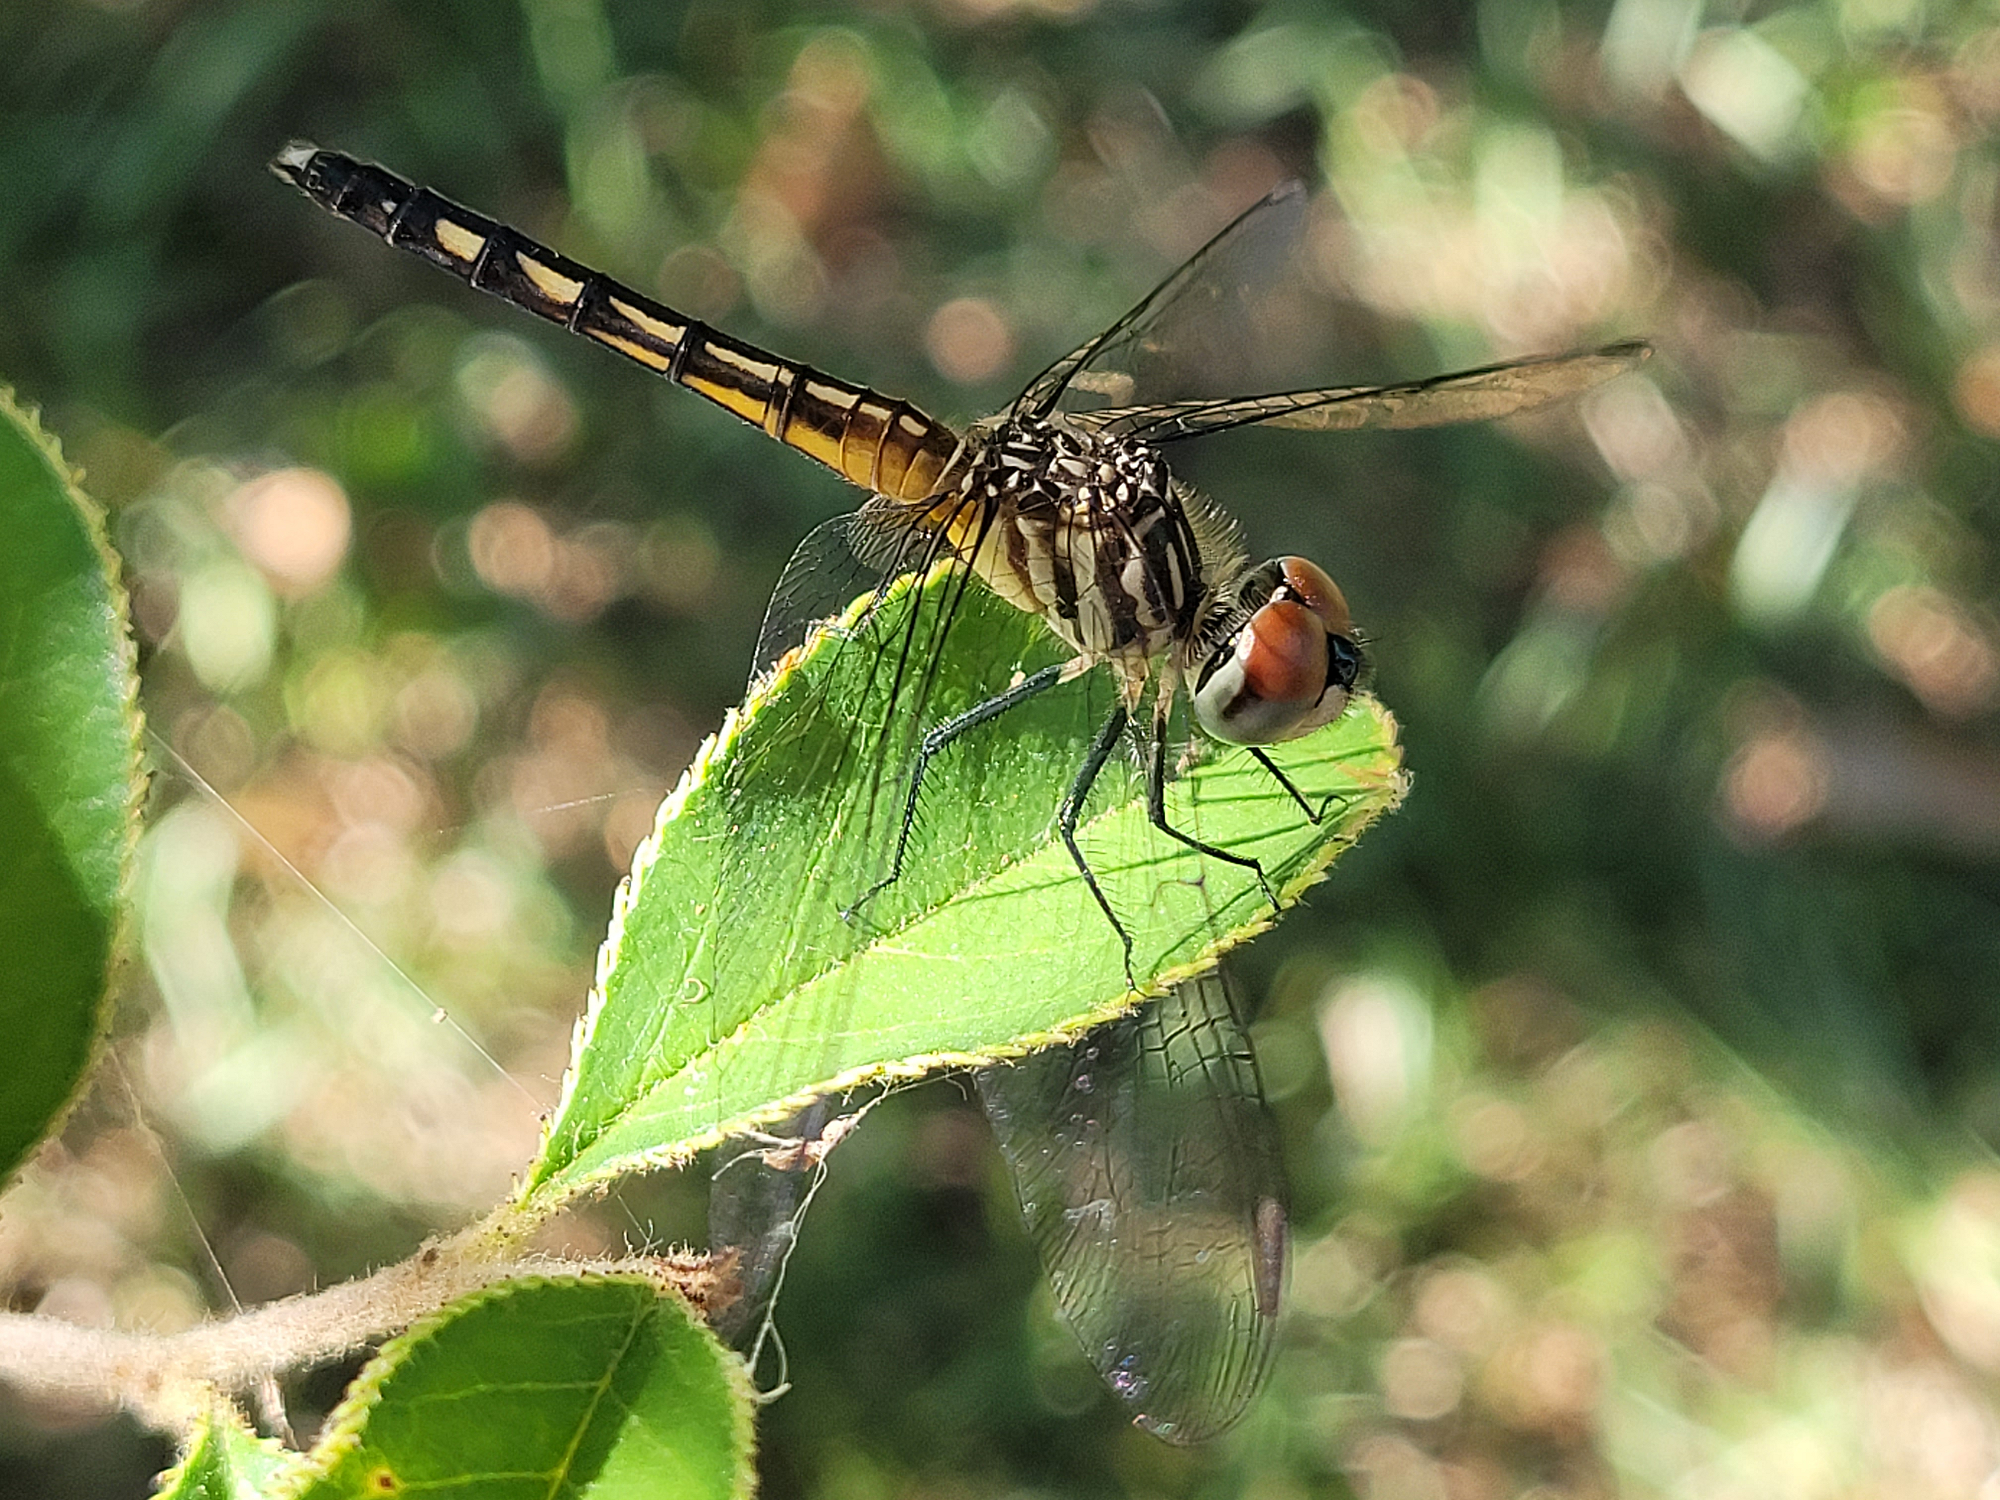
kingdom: Animalia
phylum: Arthropoda
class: Insecta
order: Odonata
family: Libellulidae
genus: Pachydiplax
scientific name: Pachydiplax longipennis
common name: Blue dasher
